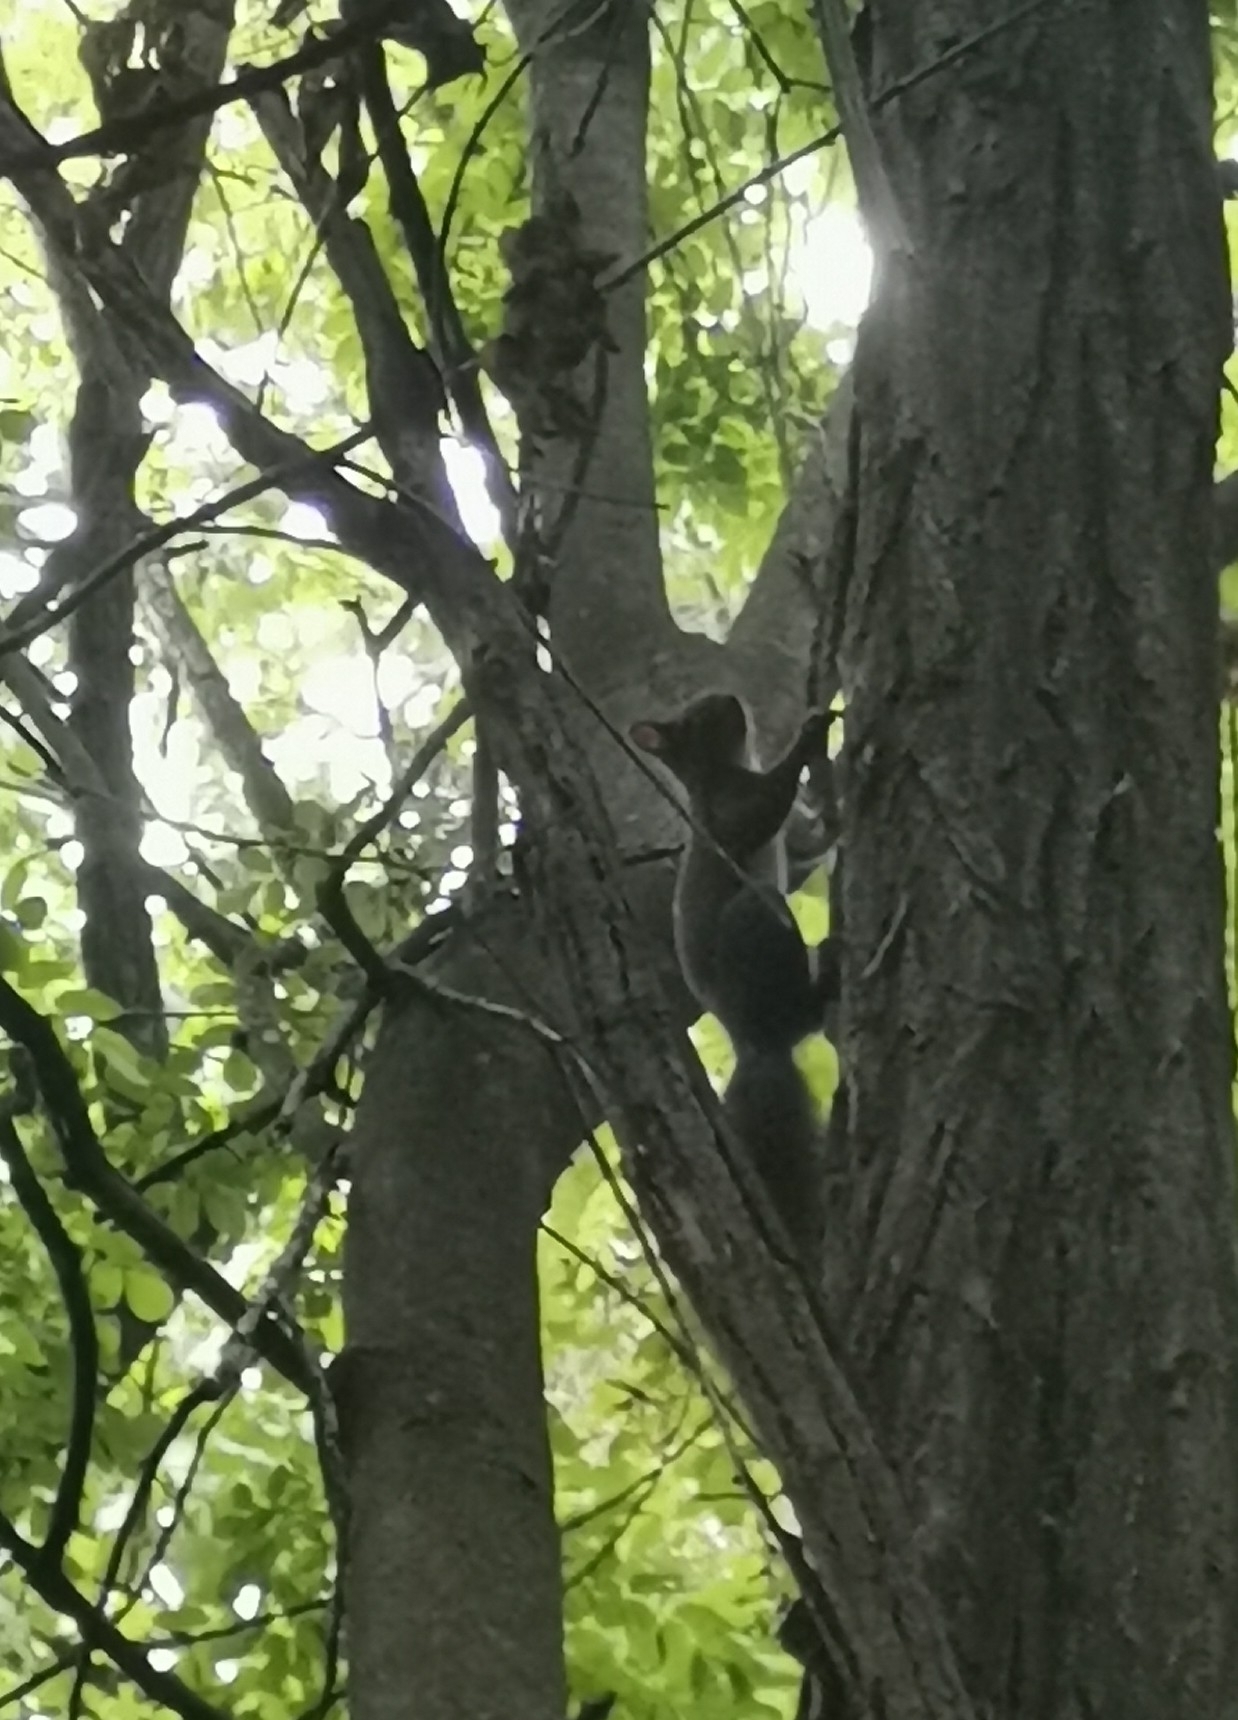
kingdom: Animalia
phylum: Chordata
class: Mammalia
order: Rodentia
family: Sciuridae
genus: Sciurus
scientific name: Sciurus vulgaris
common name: Eurasian red squirrel
